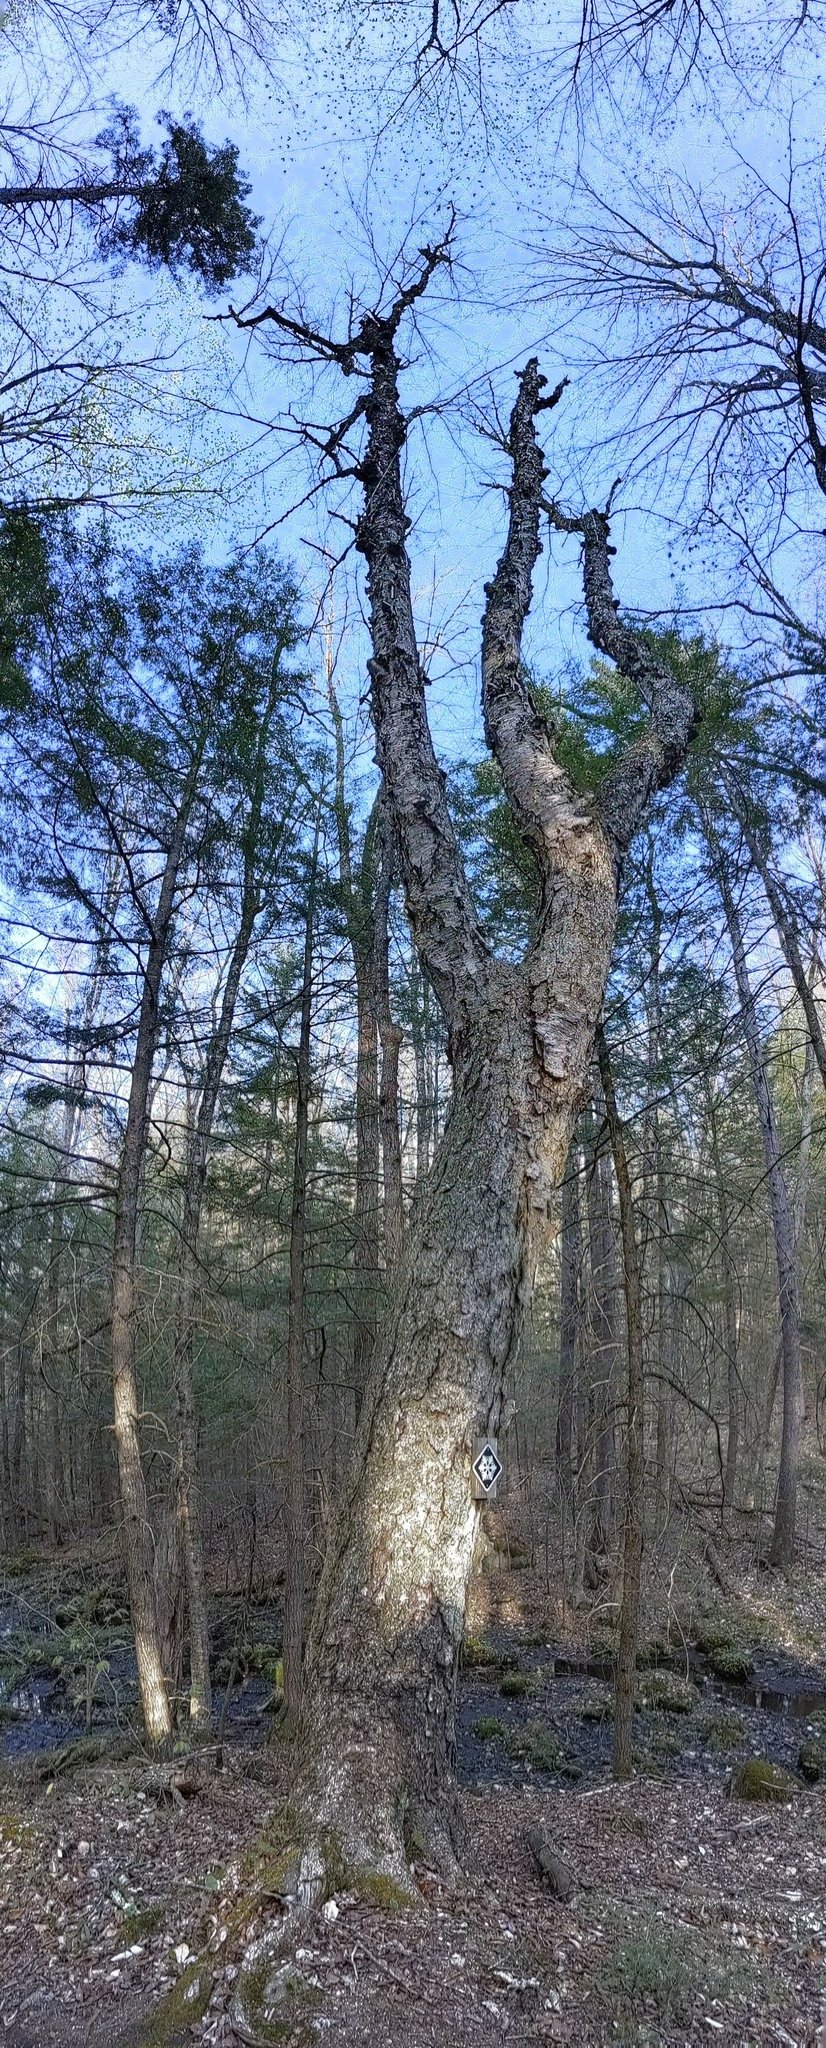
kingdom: Plantae
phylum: Tracheophyta
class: Magnoliopsida
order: Fagales
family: Betulaceae
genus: Betula
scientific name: Betula alleghaniensis
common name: Yellow birch
